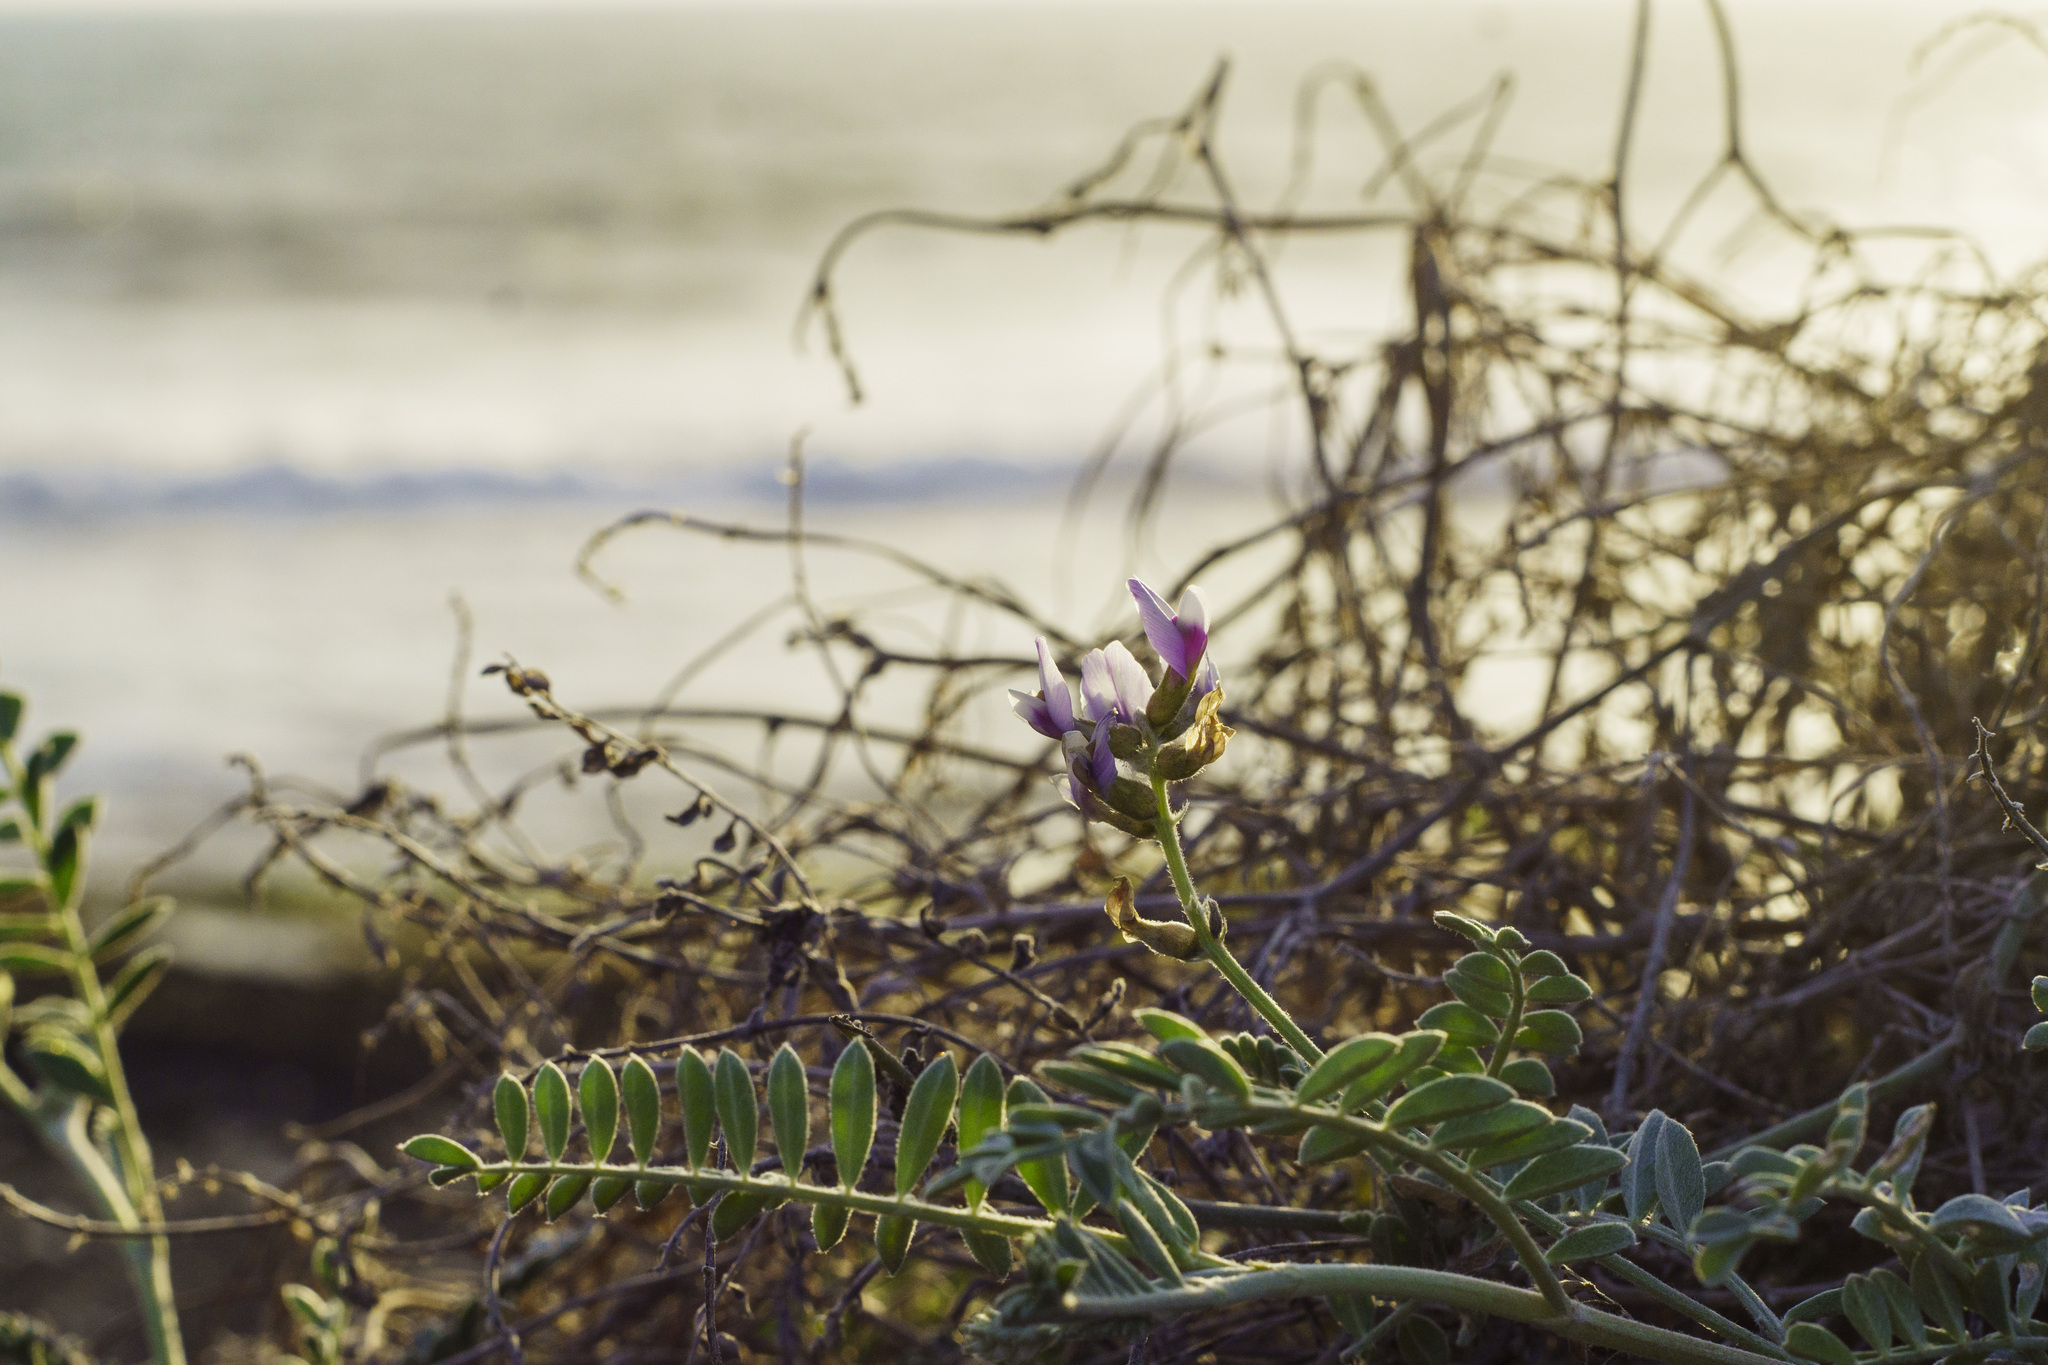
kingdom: Plantae
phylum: Tracheophyta
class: Magnoliopsida
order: Fabales
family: Fabaceae
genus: Astragalus
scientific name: Astragalus harbisonii
